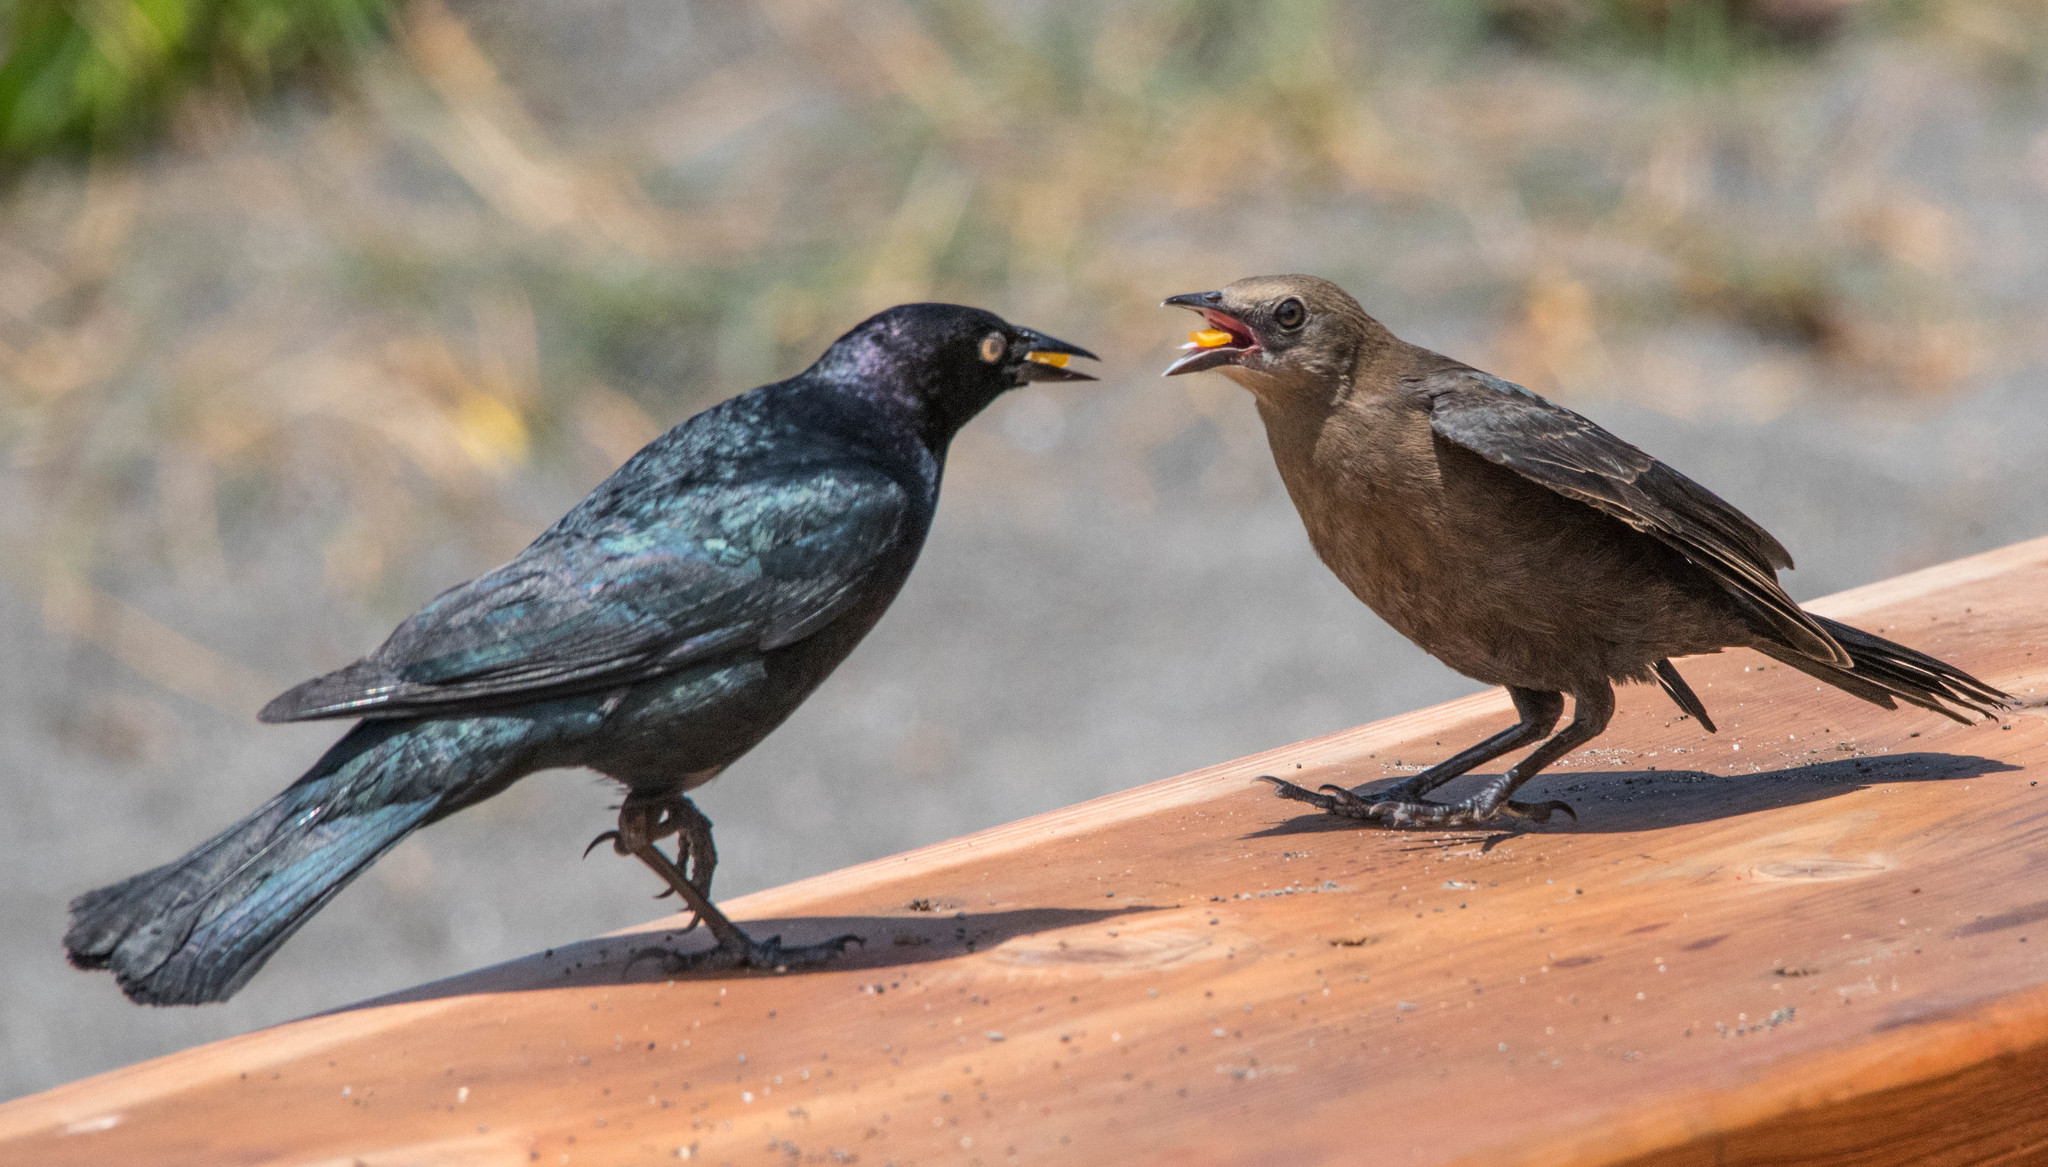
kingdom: Animalia
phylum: Chordata
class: Aves
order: Passeriformes
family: Icteridae
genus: Euphagus
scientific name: Euphagus cyanocephalus
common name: Brewer's blackbird
